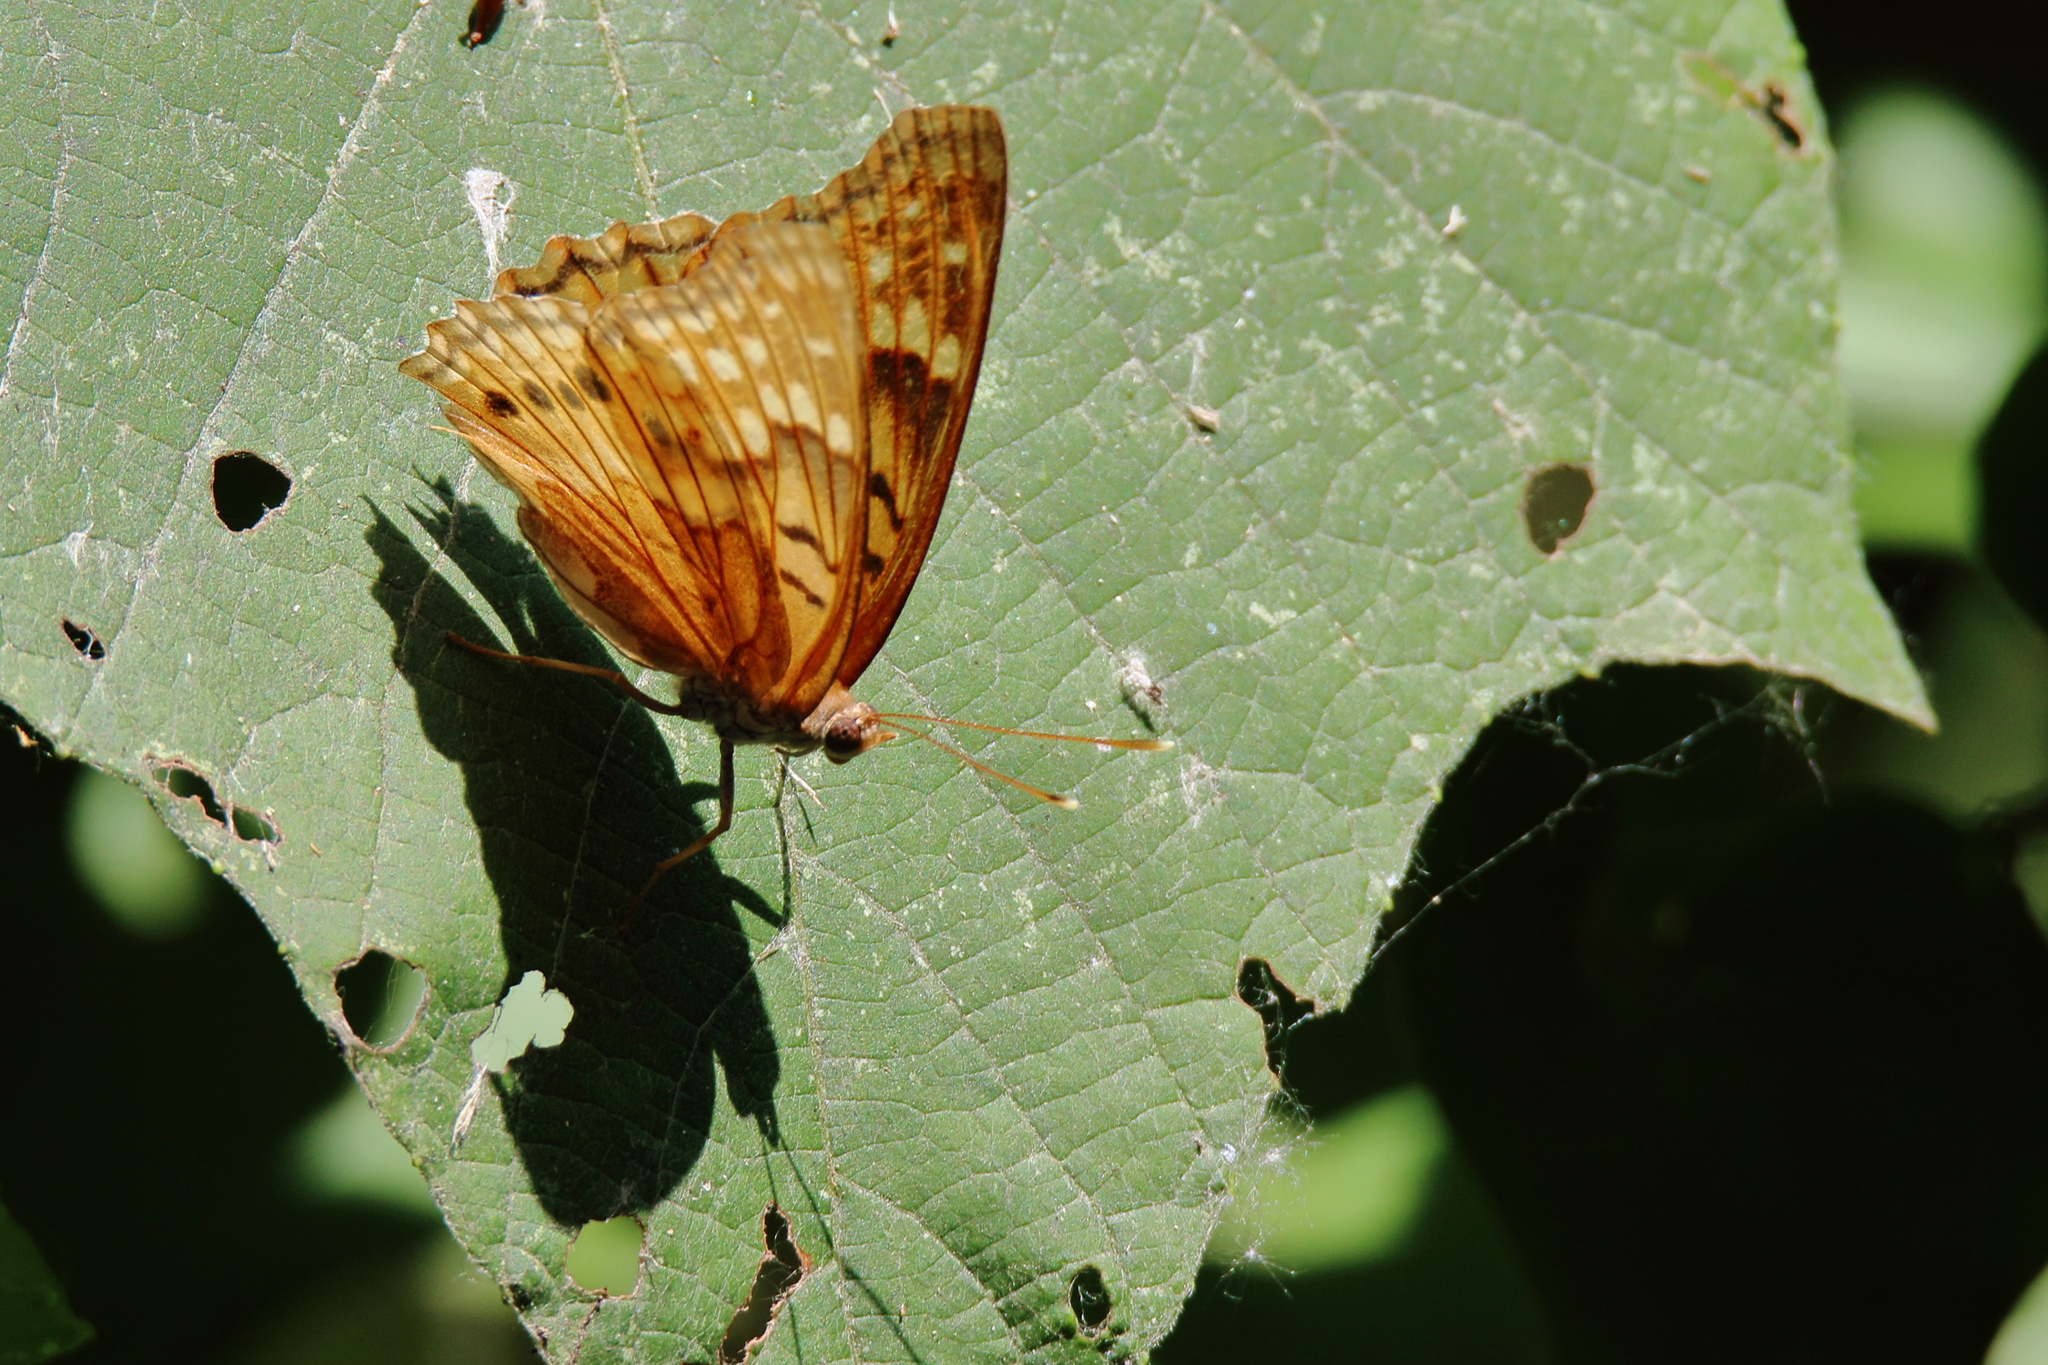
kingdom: Animalia
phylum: Arthropoda
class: Insecta
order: Lepidoptera
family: Nymphalidae
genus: Asterocampa
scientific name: Asterocampa clyton
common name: Tawny emperor
